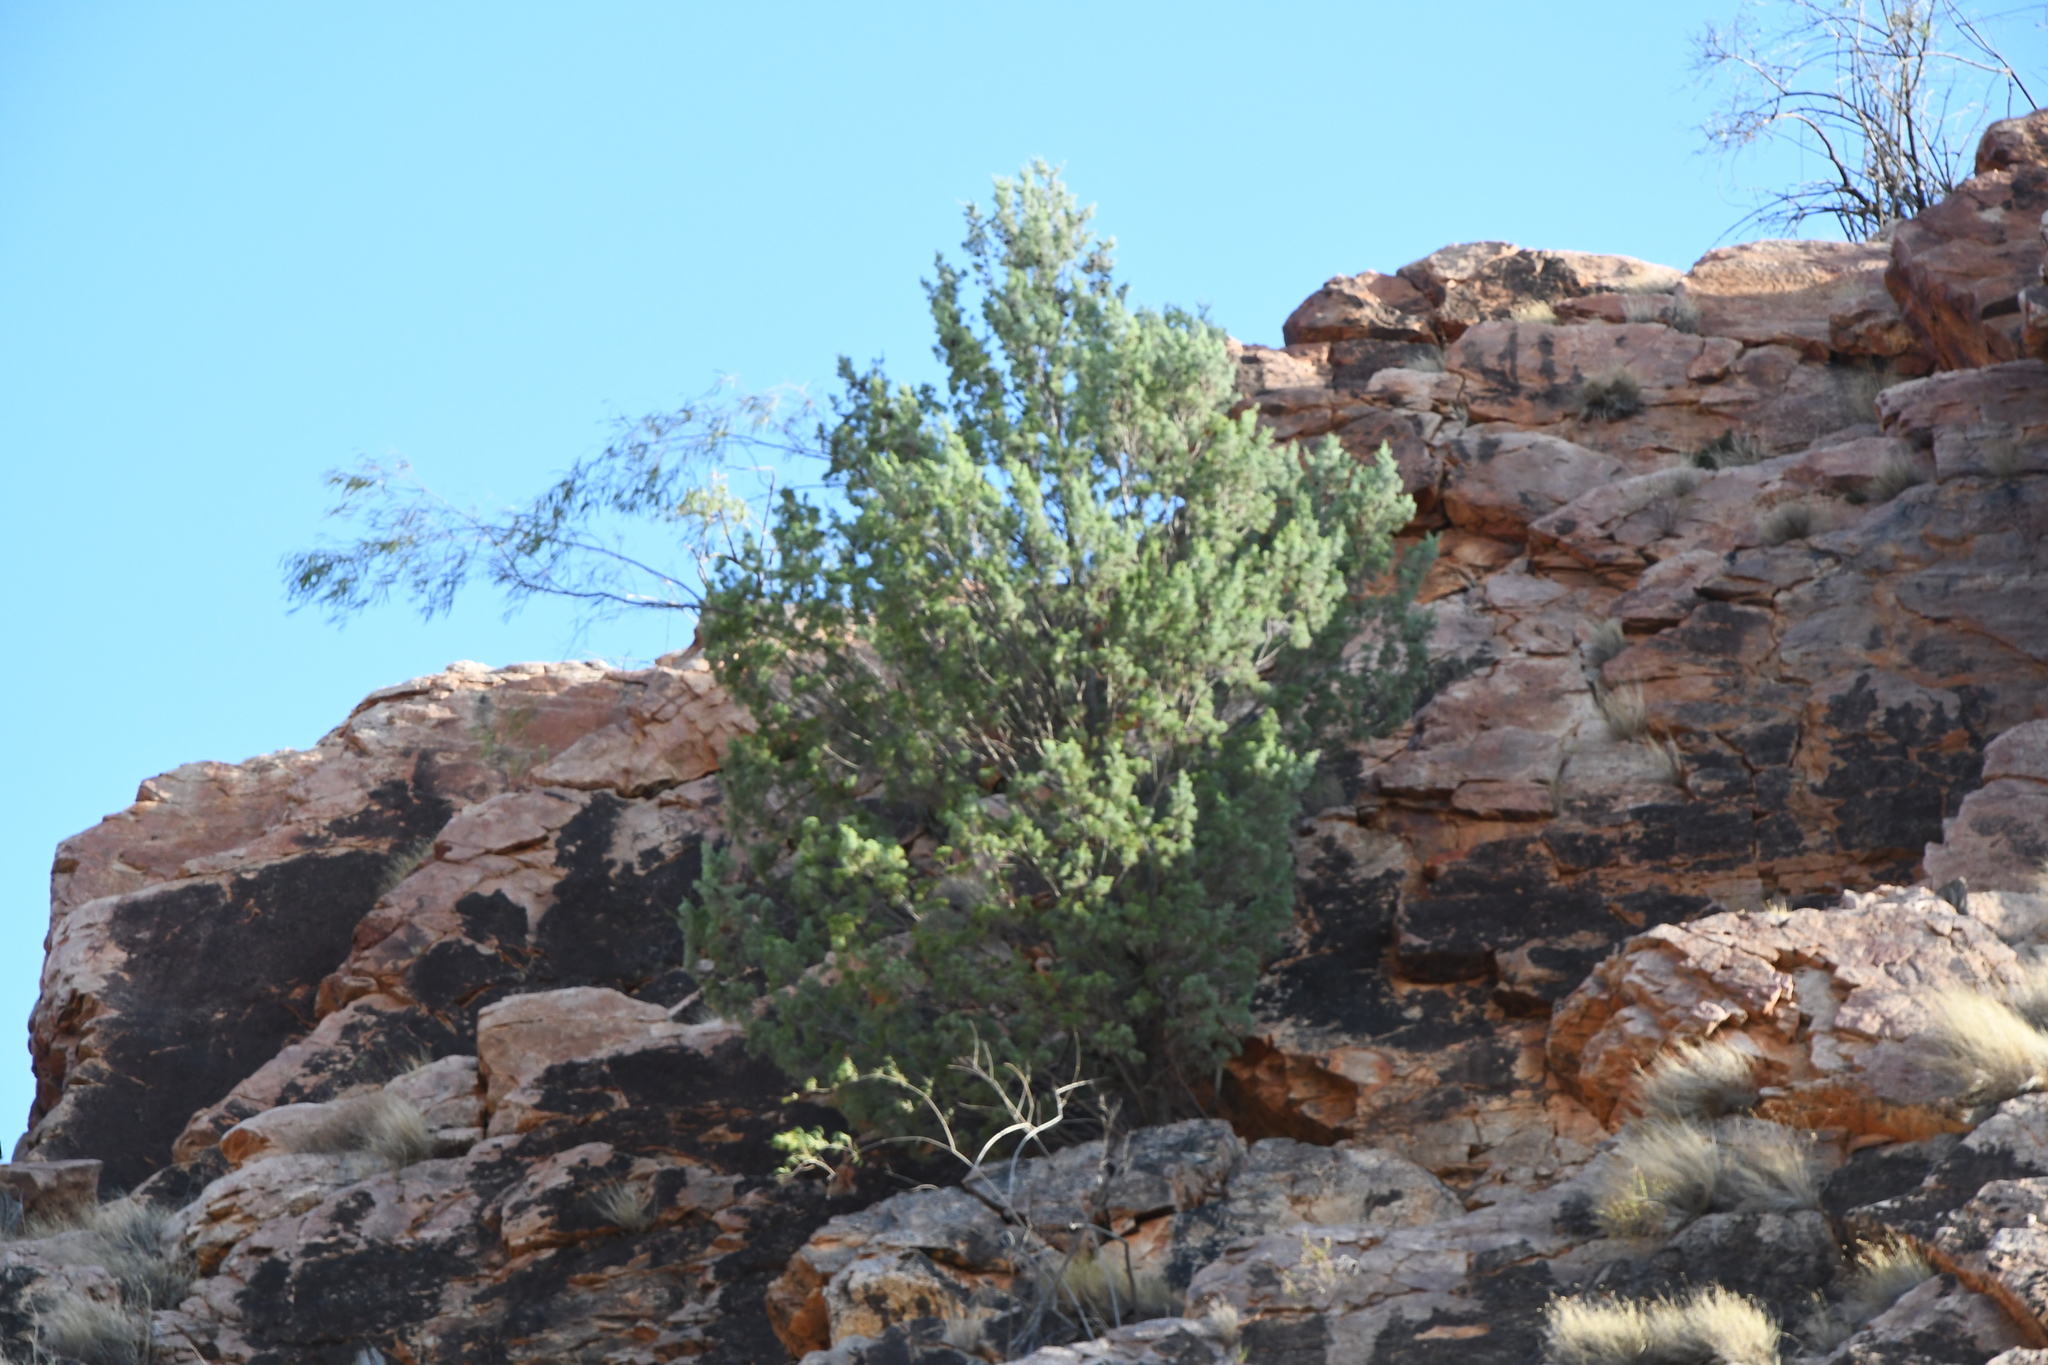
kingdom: Plantae
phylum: Tracheophyta
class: Pinopsida
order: Pinales
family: Cupressaceae
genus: Callitris
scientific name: Callitris columellaris
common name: White cypress-pine
